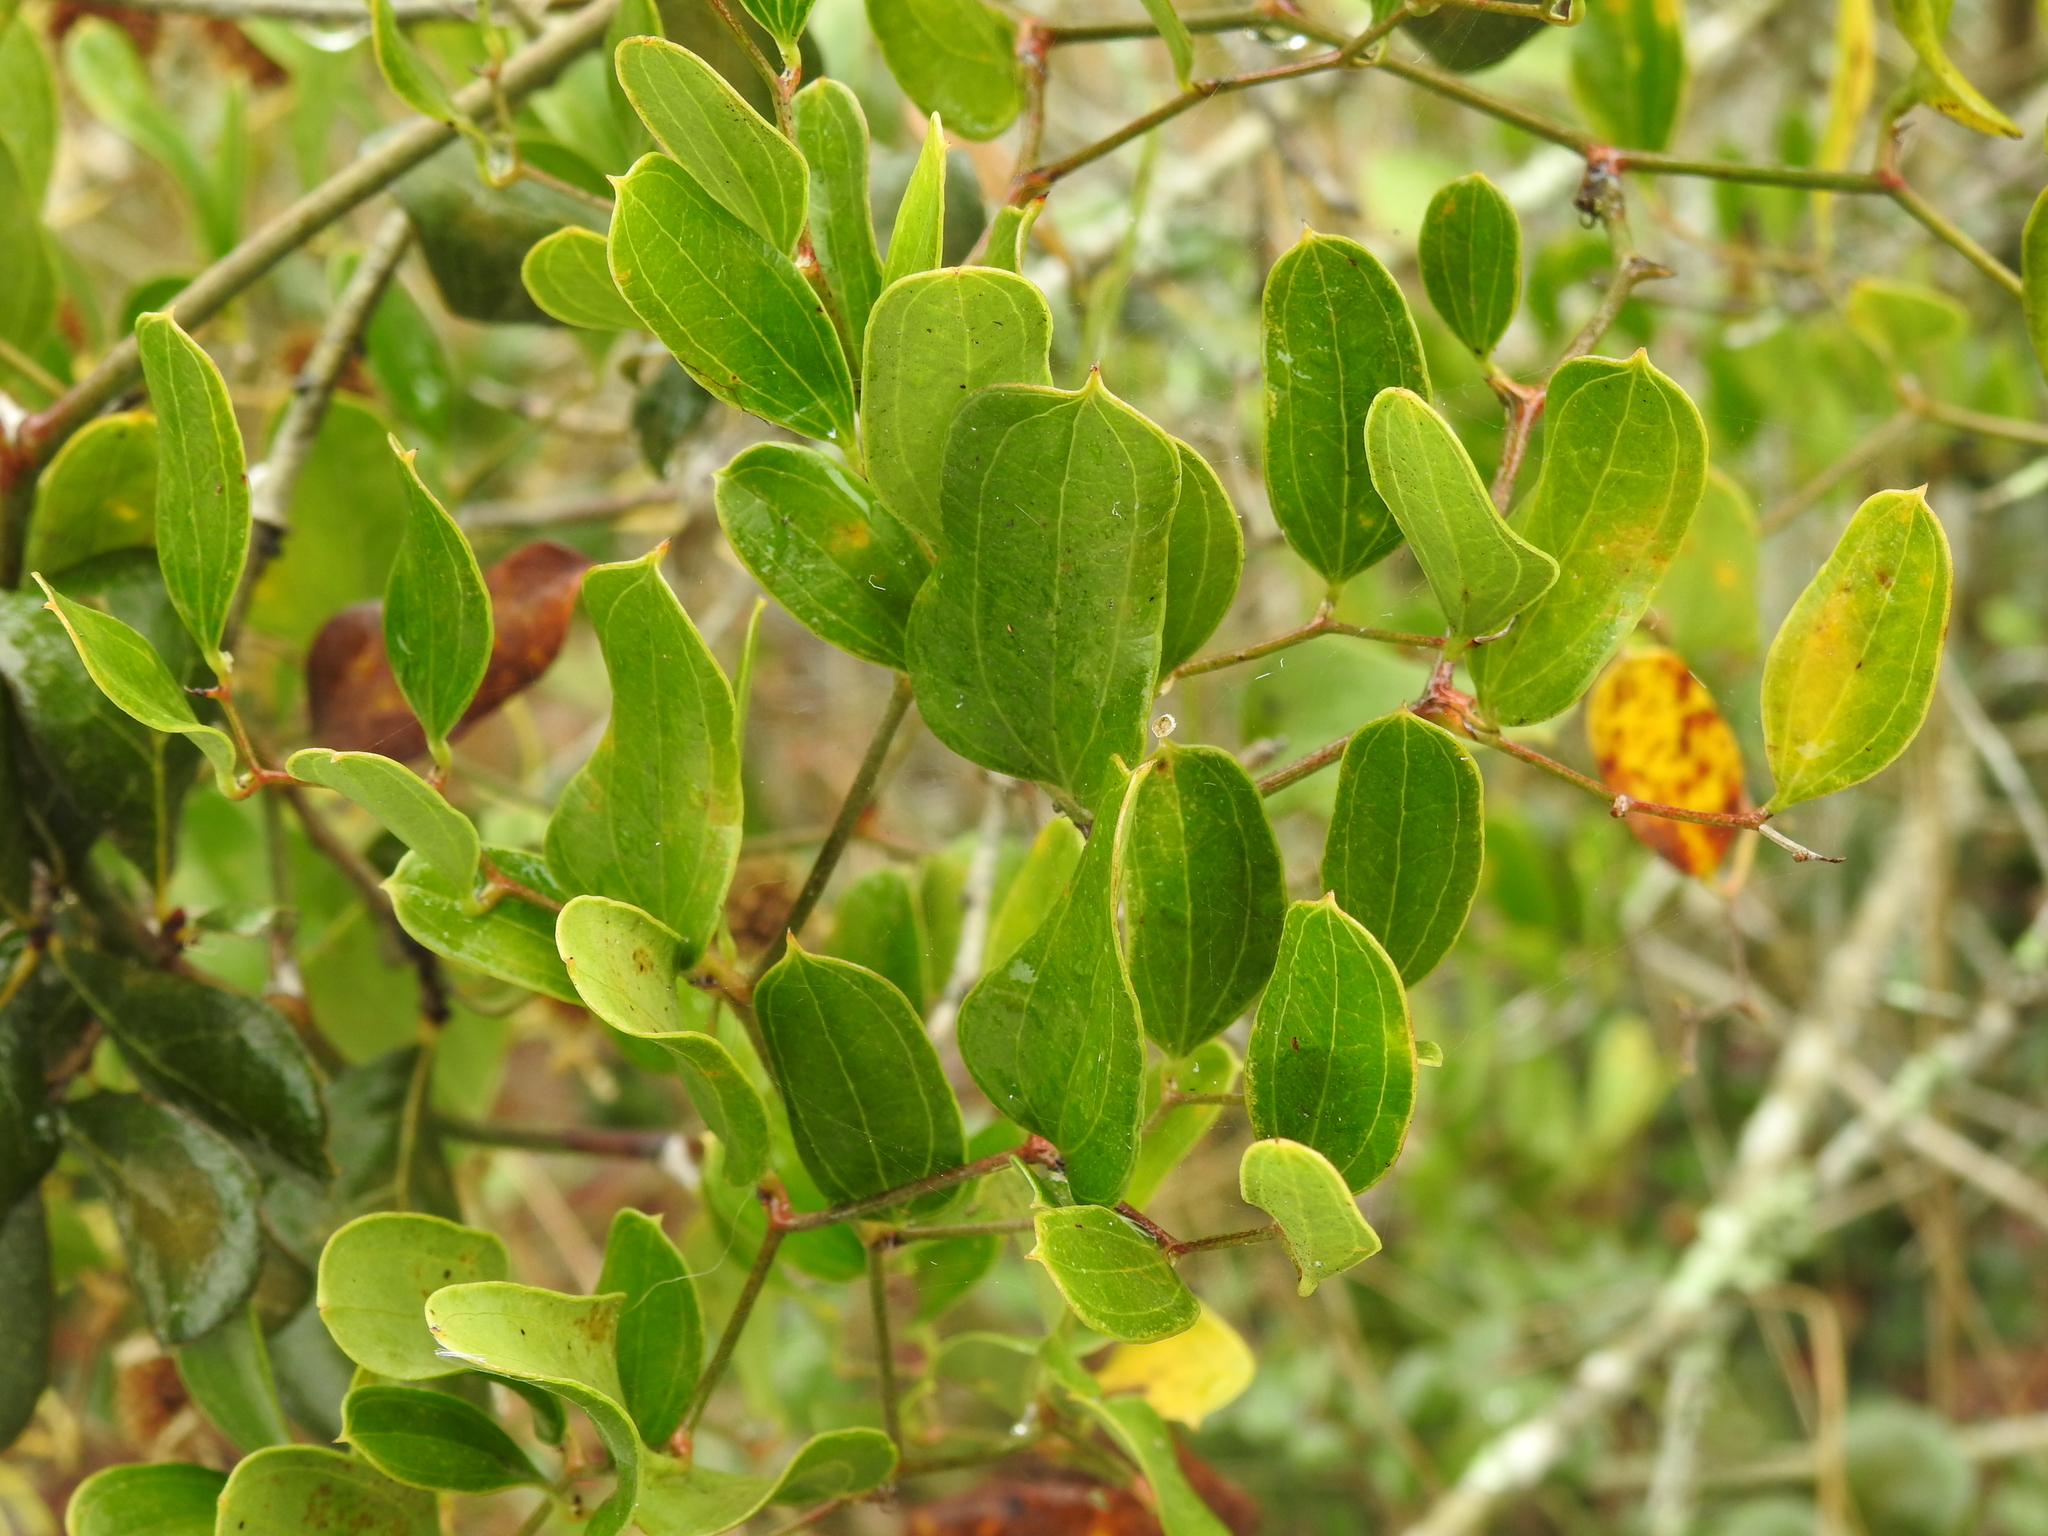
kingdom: Plantae
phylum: Tracheophyta
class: Liliopsida
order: Liliales
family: Smilacaceae
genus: Smilax
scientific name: Smilax auriculata
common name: Wild bamboo
